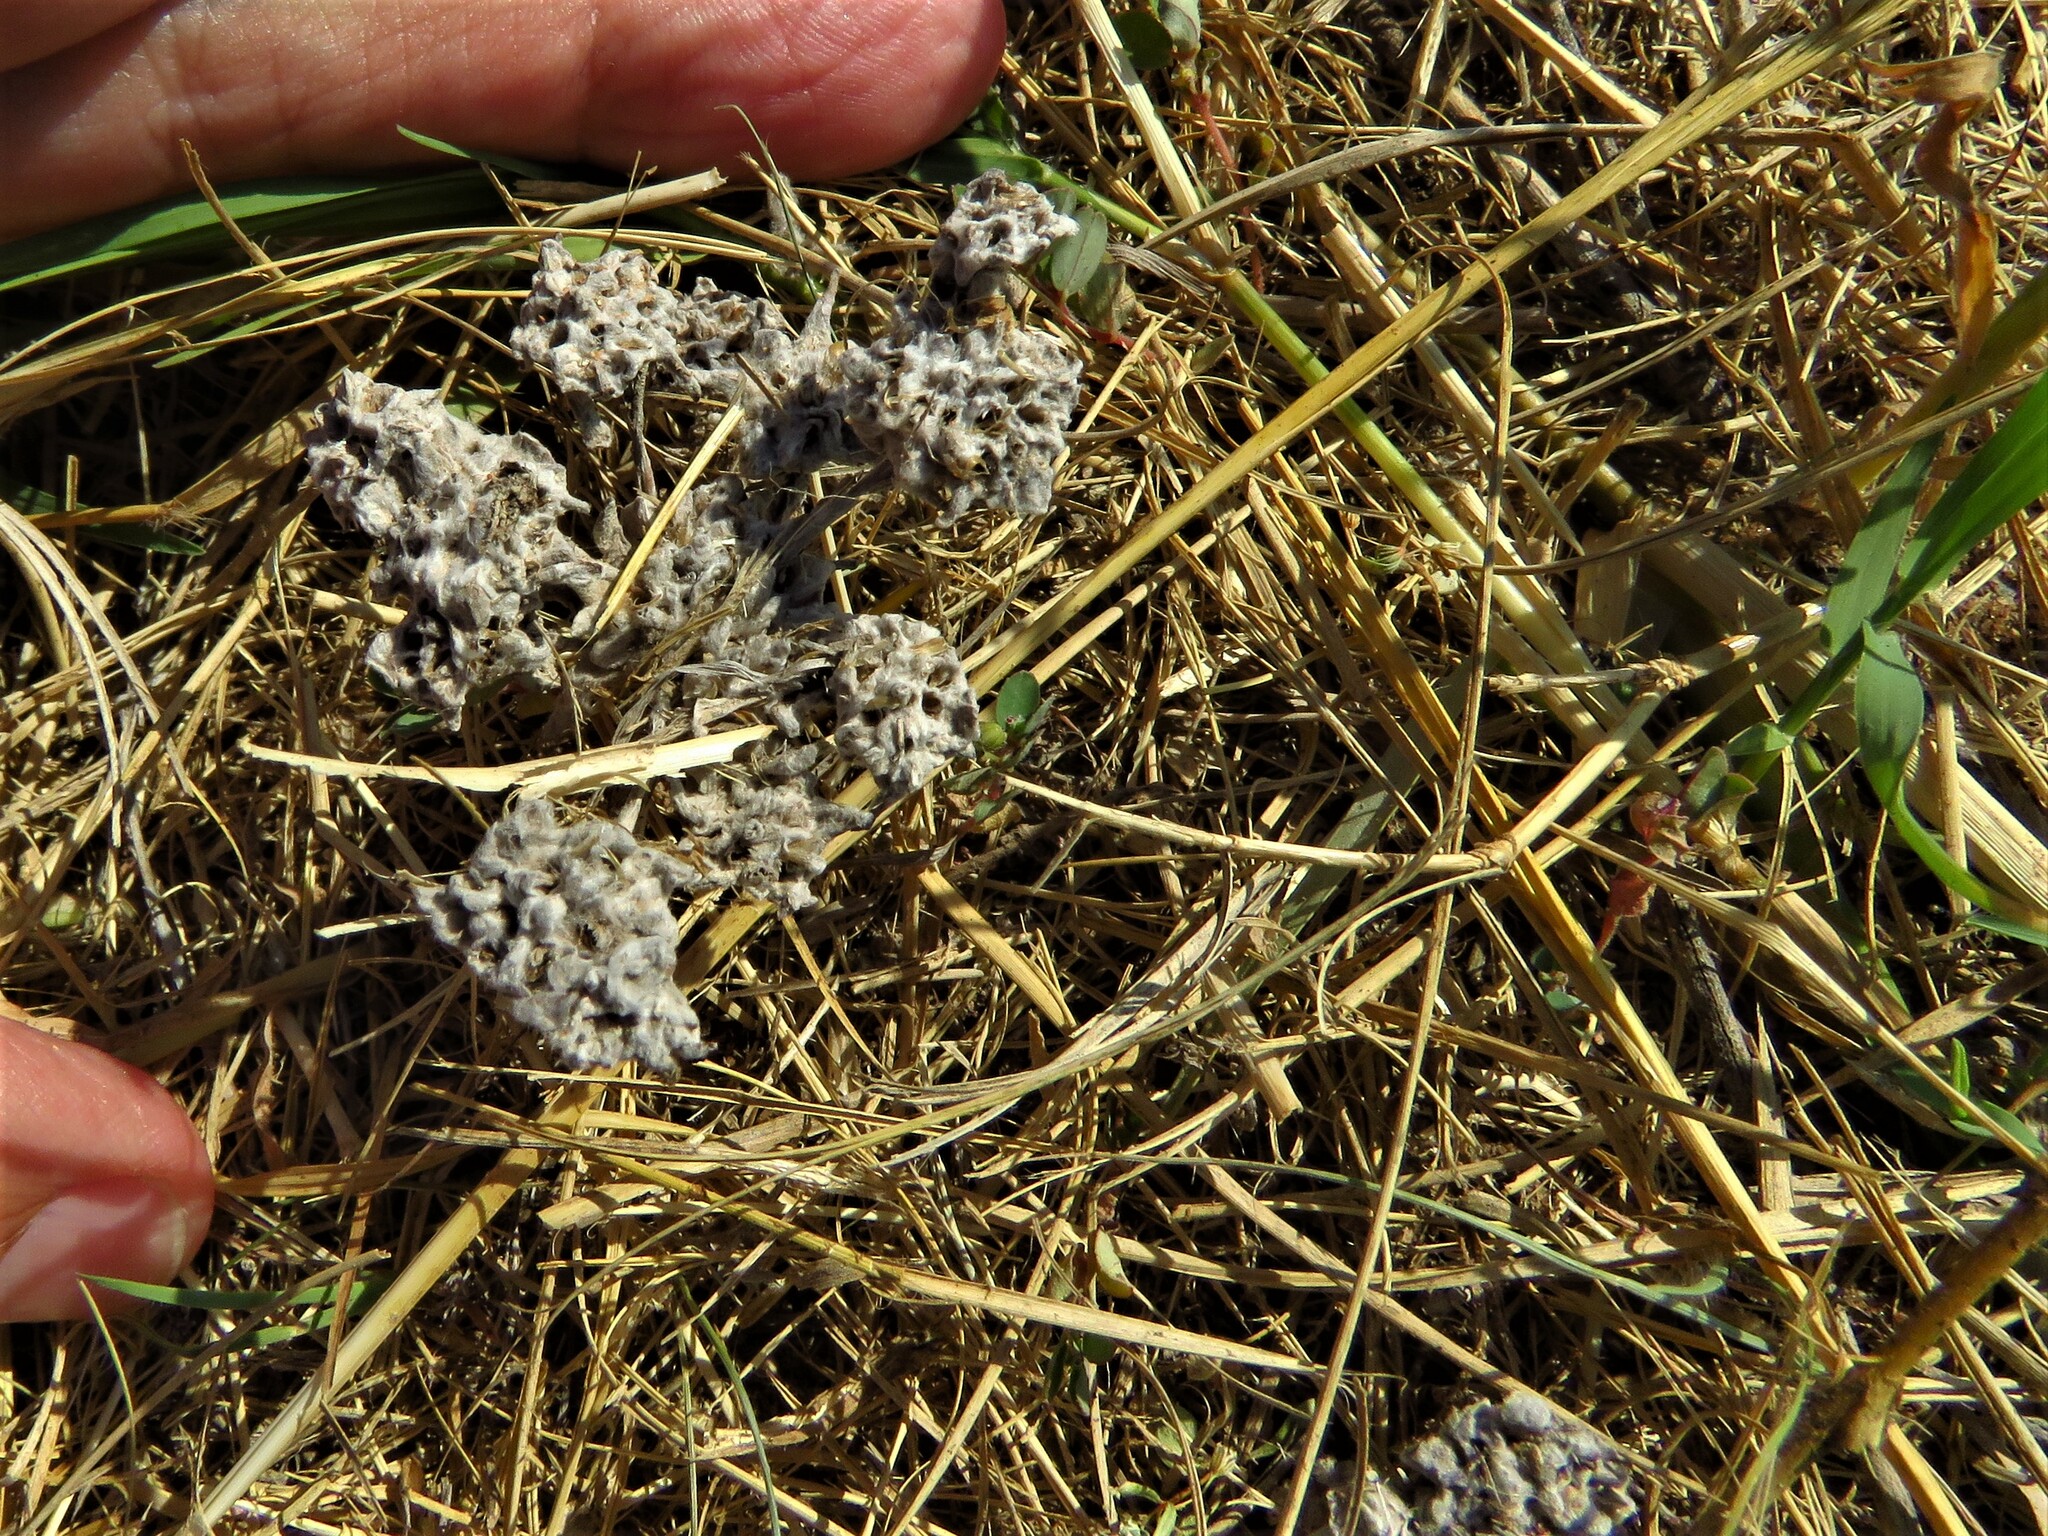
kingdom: Plantae
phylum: Tracheophyta
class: Magnoliopsida
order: Asterales
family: Asteraceae
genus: Diaperia
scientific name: Diaperia prolifera
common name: Big-head rabbit-tobacco
